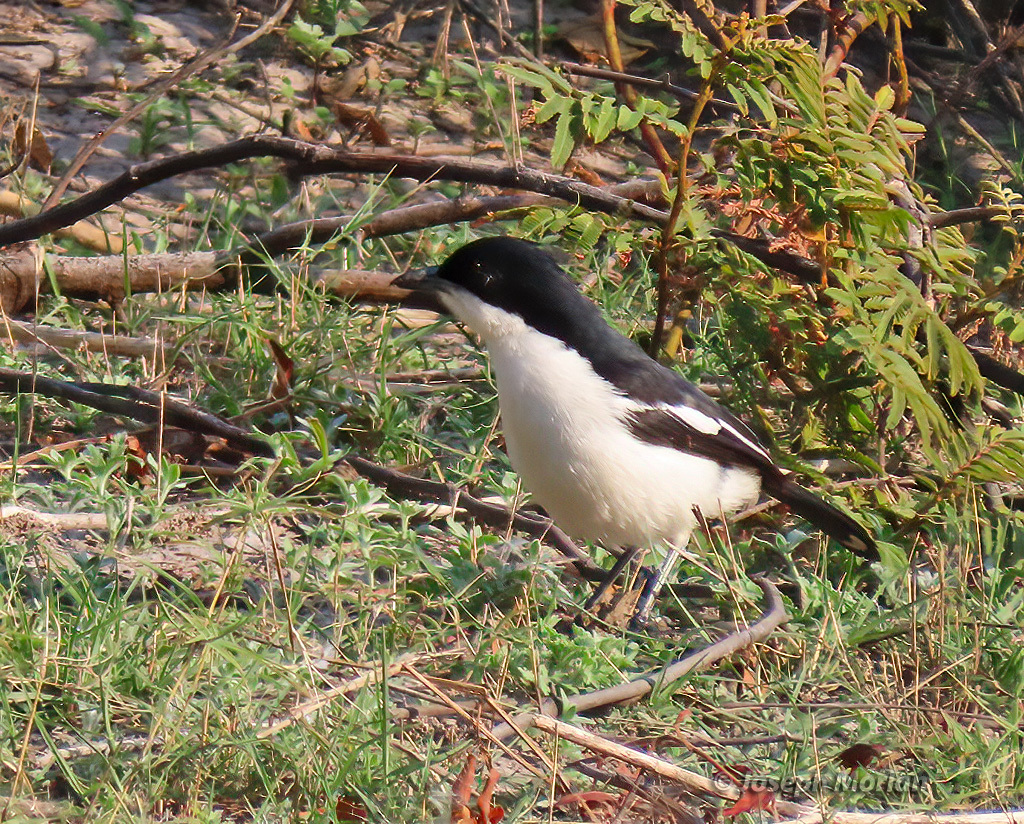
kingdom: Animalia
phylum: Chordata
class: Aves
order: Passeriformes
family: Malaconotidae
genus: Laniarius
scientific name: Laniarius bicolor
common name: Swamp boubou
